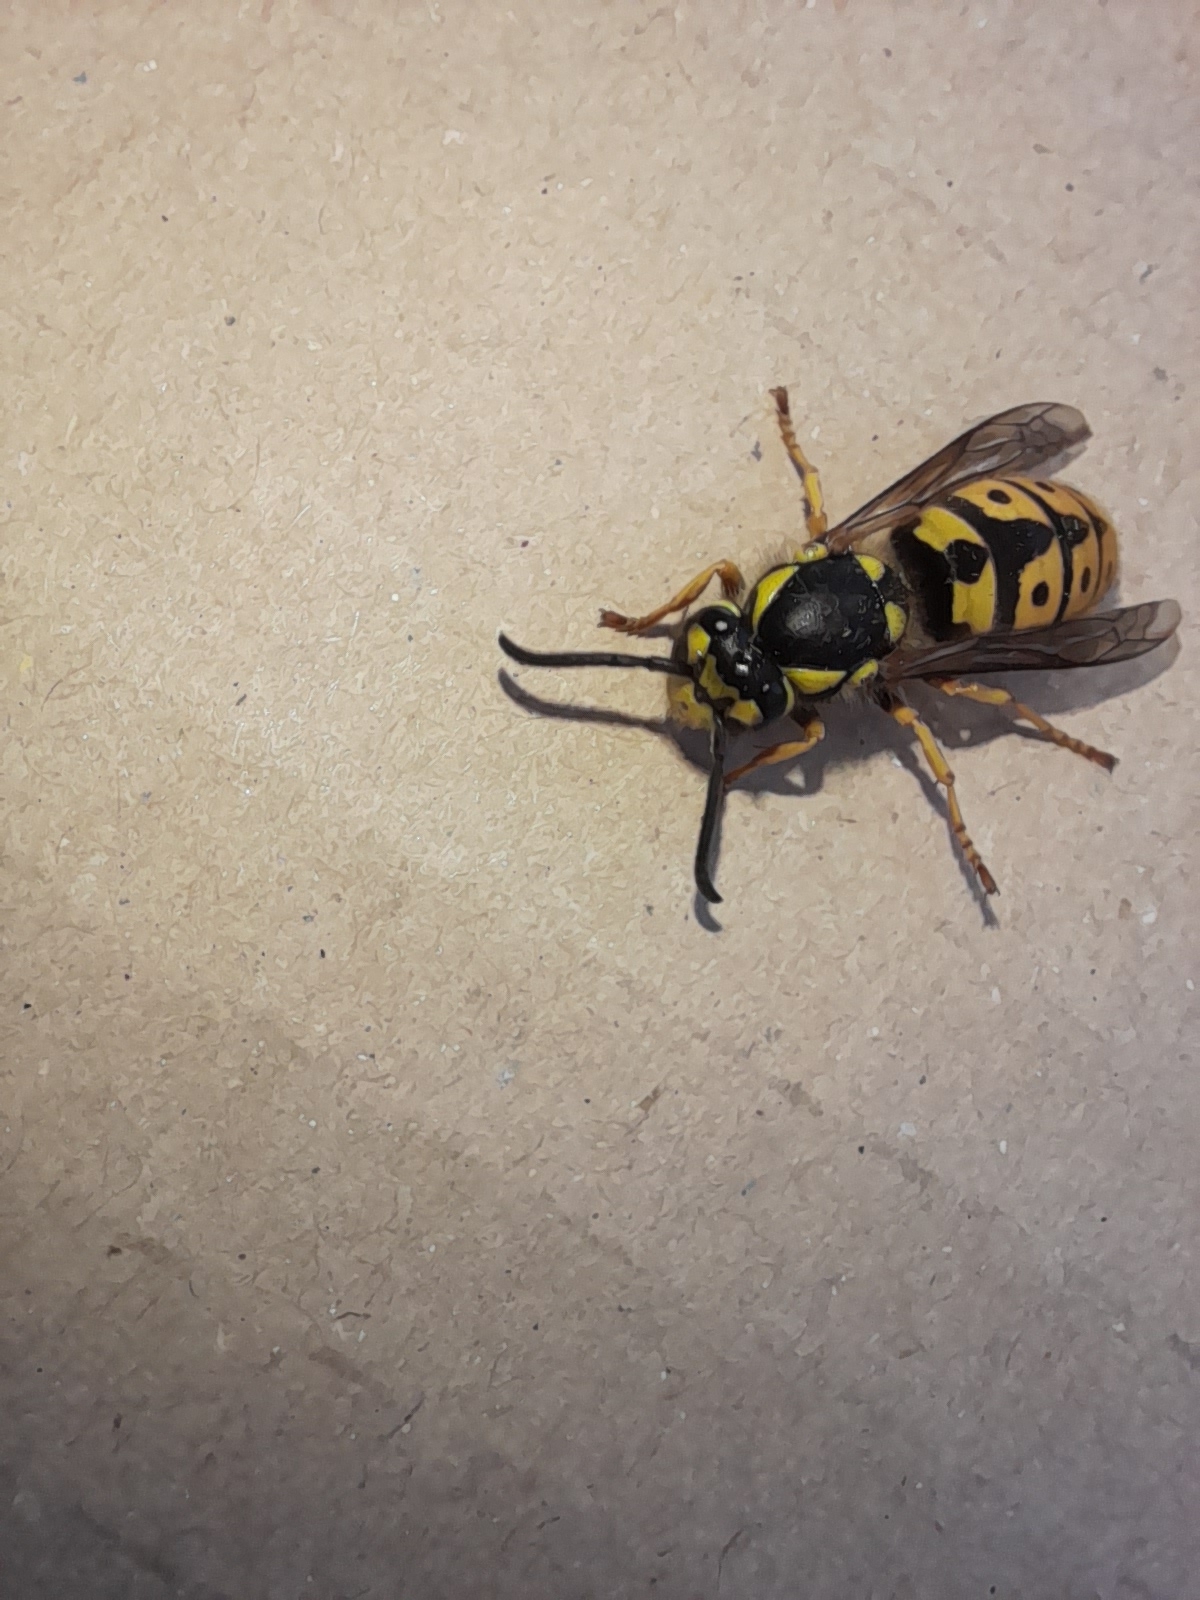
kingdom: Animalia
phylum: Arthropoda
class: Insecta
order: Hymenoptera
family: Vespidae
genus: Vespula
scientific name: Vespula germanica
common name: German wasp
